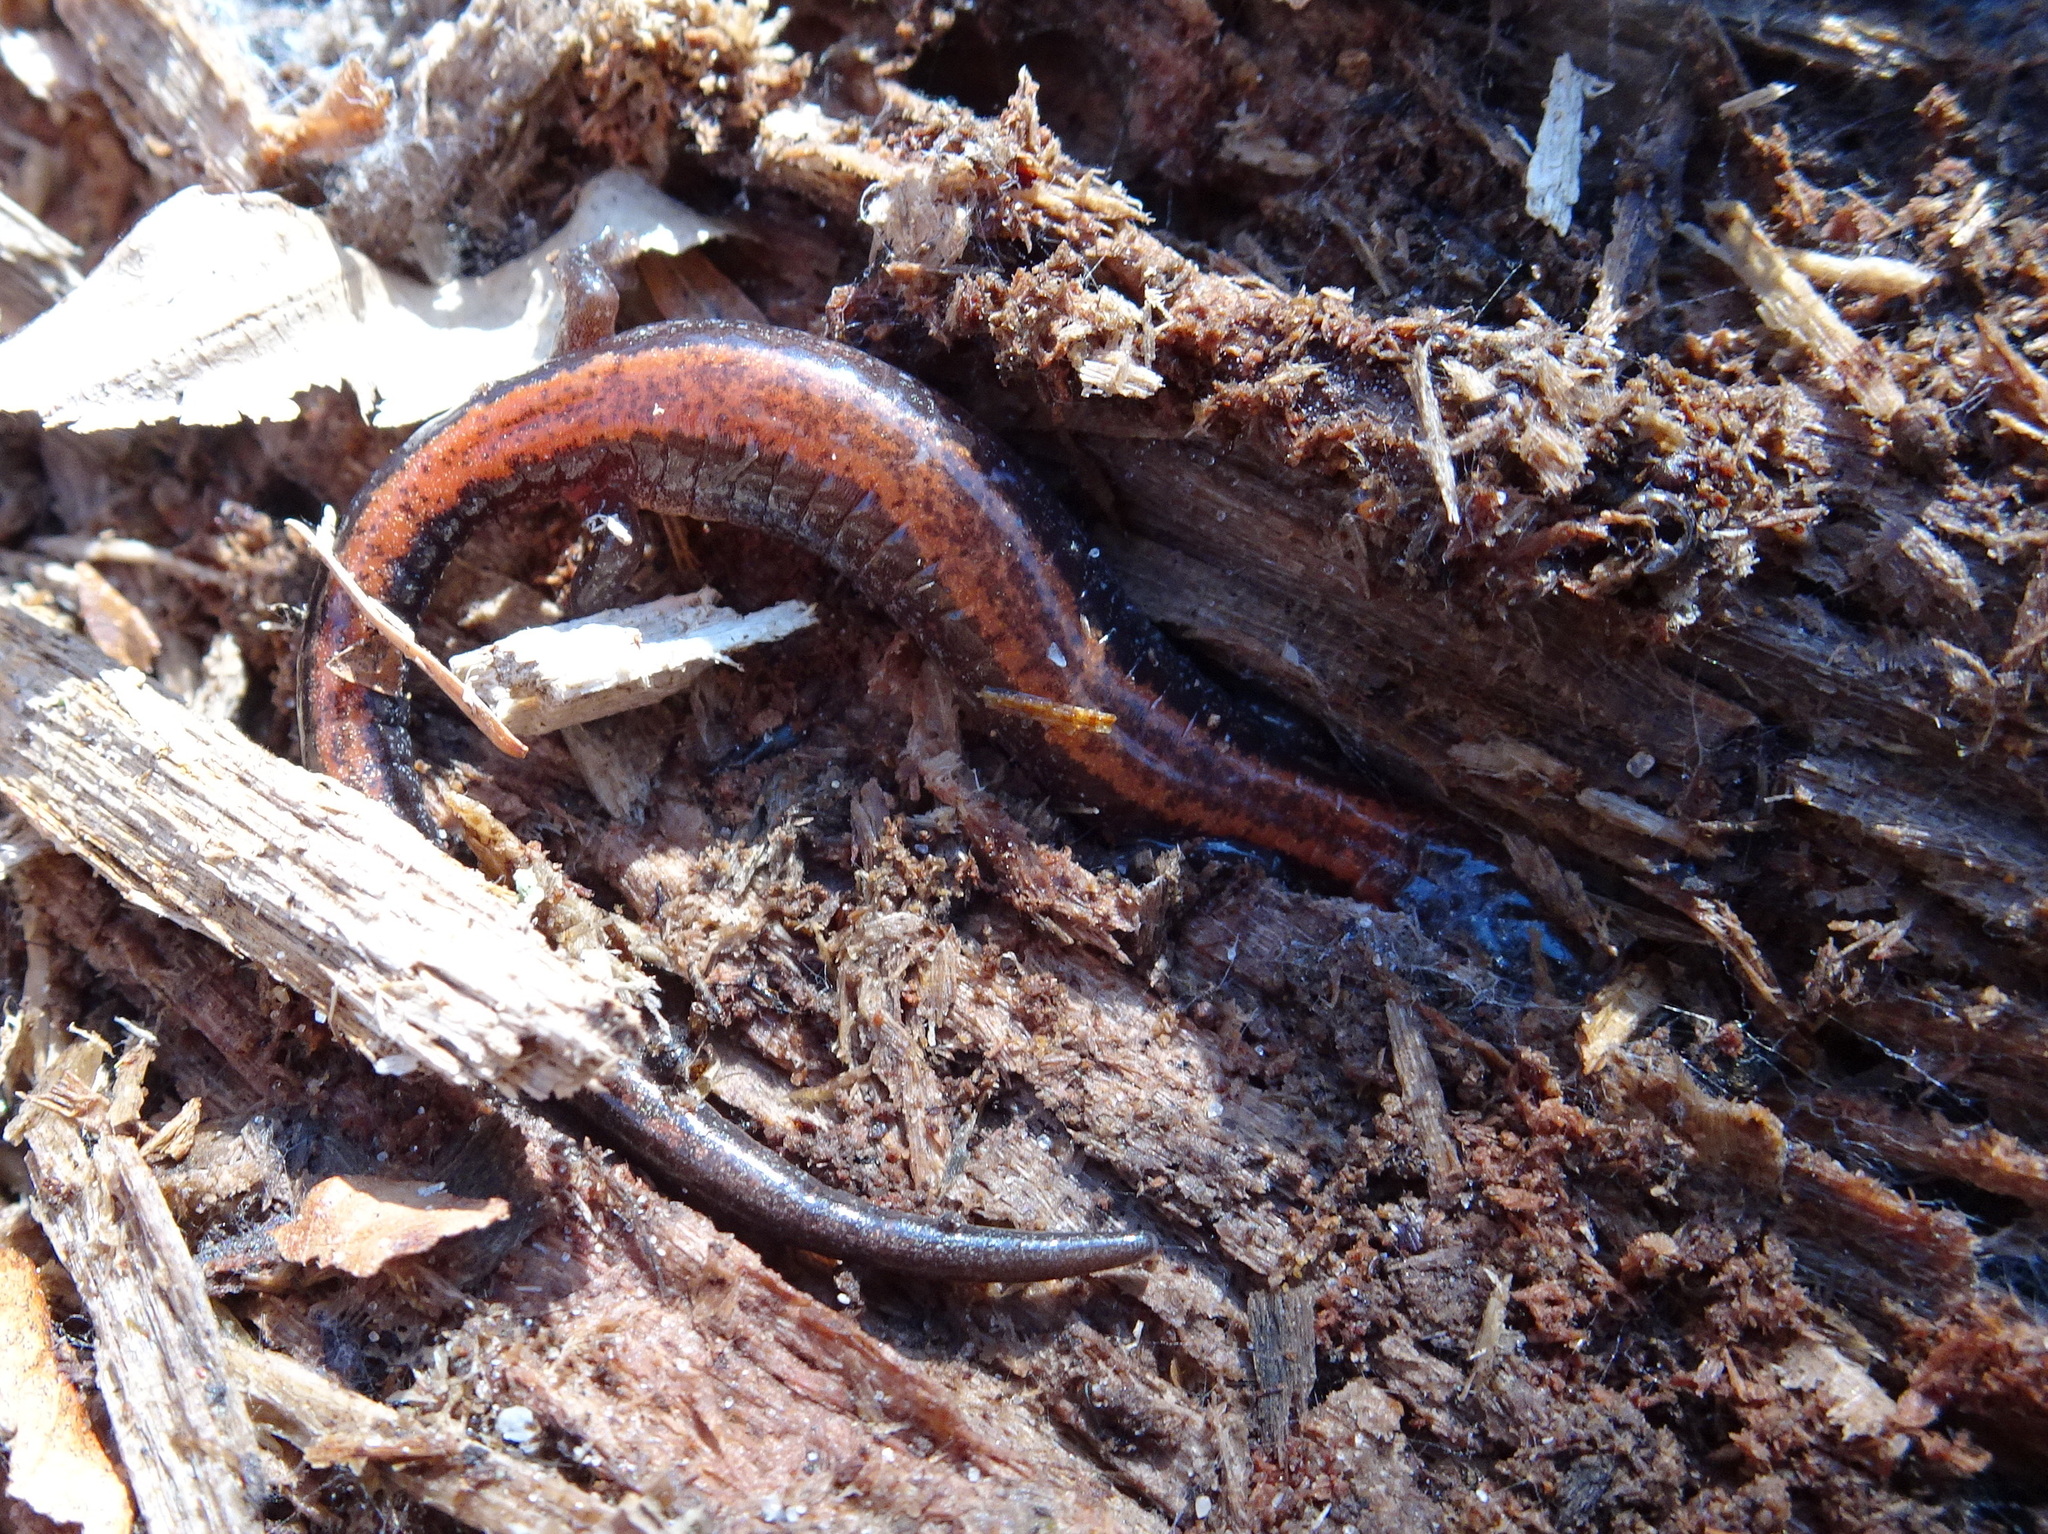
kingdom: Animalia
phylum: Chordata
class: Amphibia
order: Caudata
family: Plethodontidae
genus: Plethodon
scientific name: Plethodon cinereus
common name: Redback salamander
